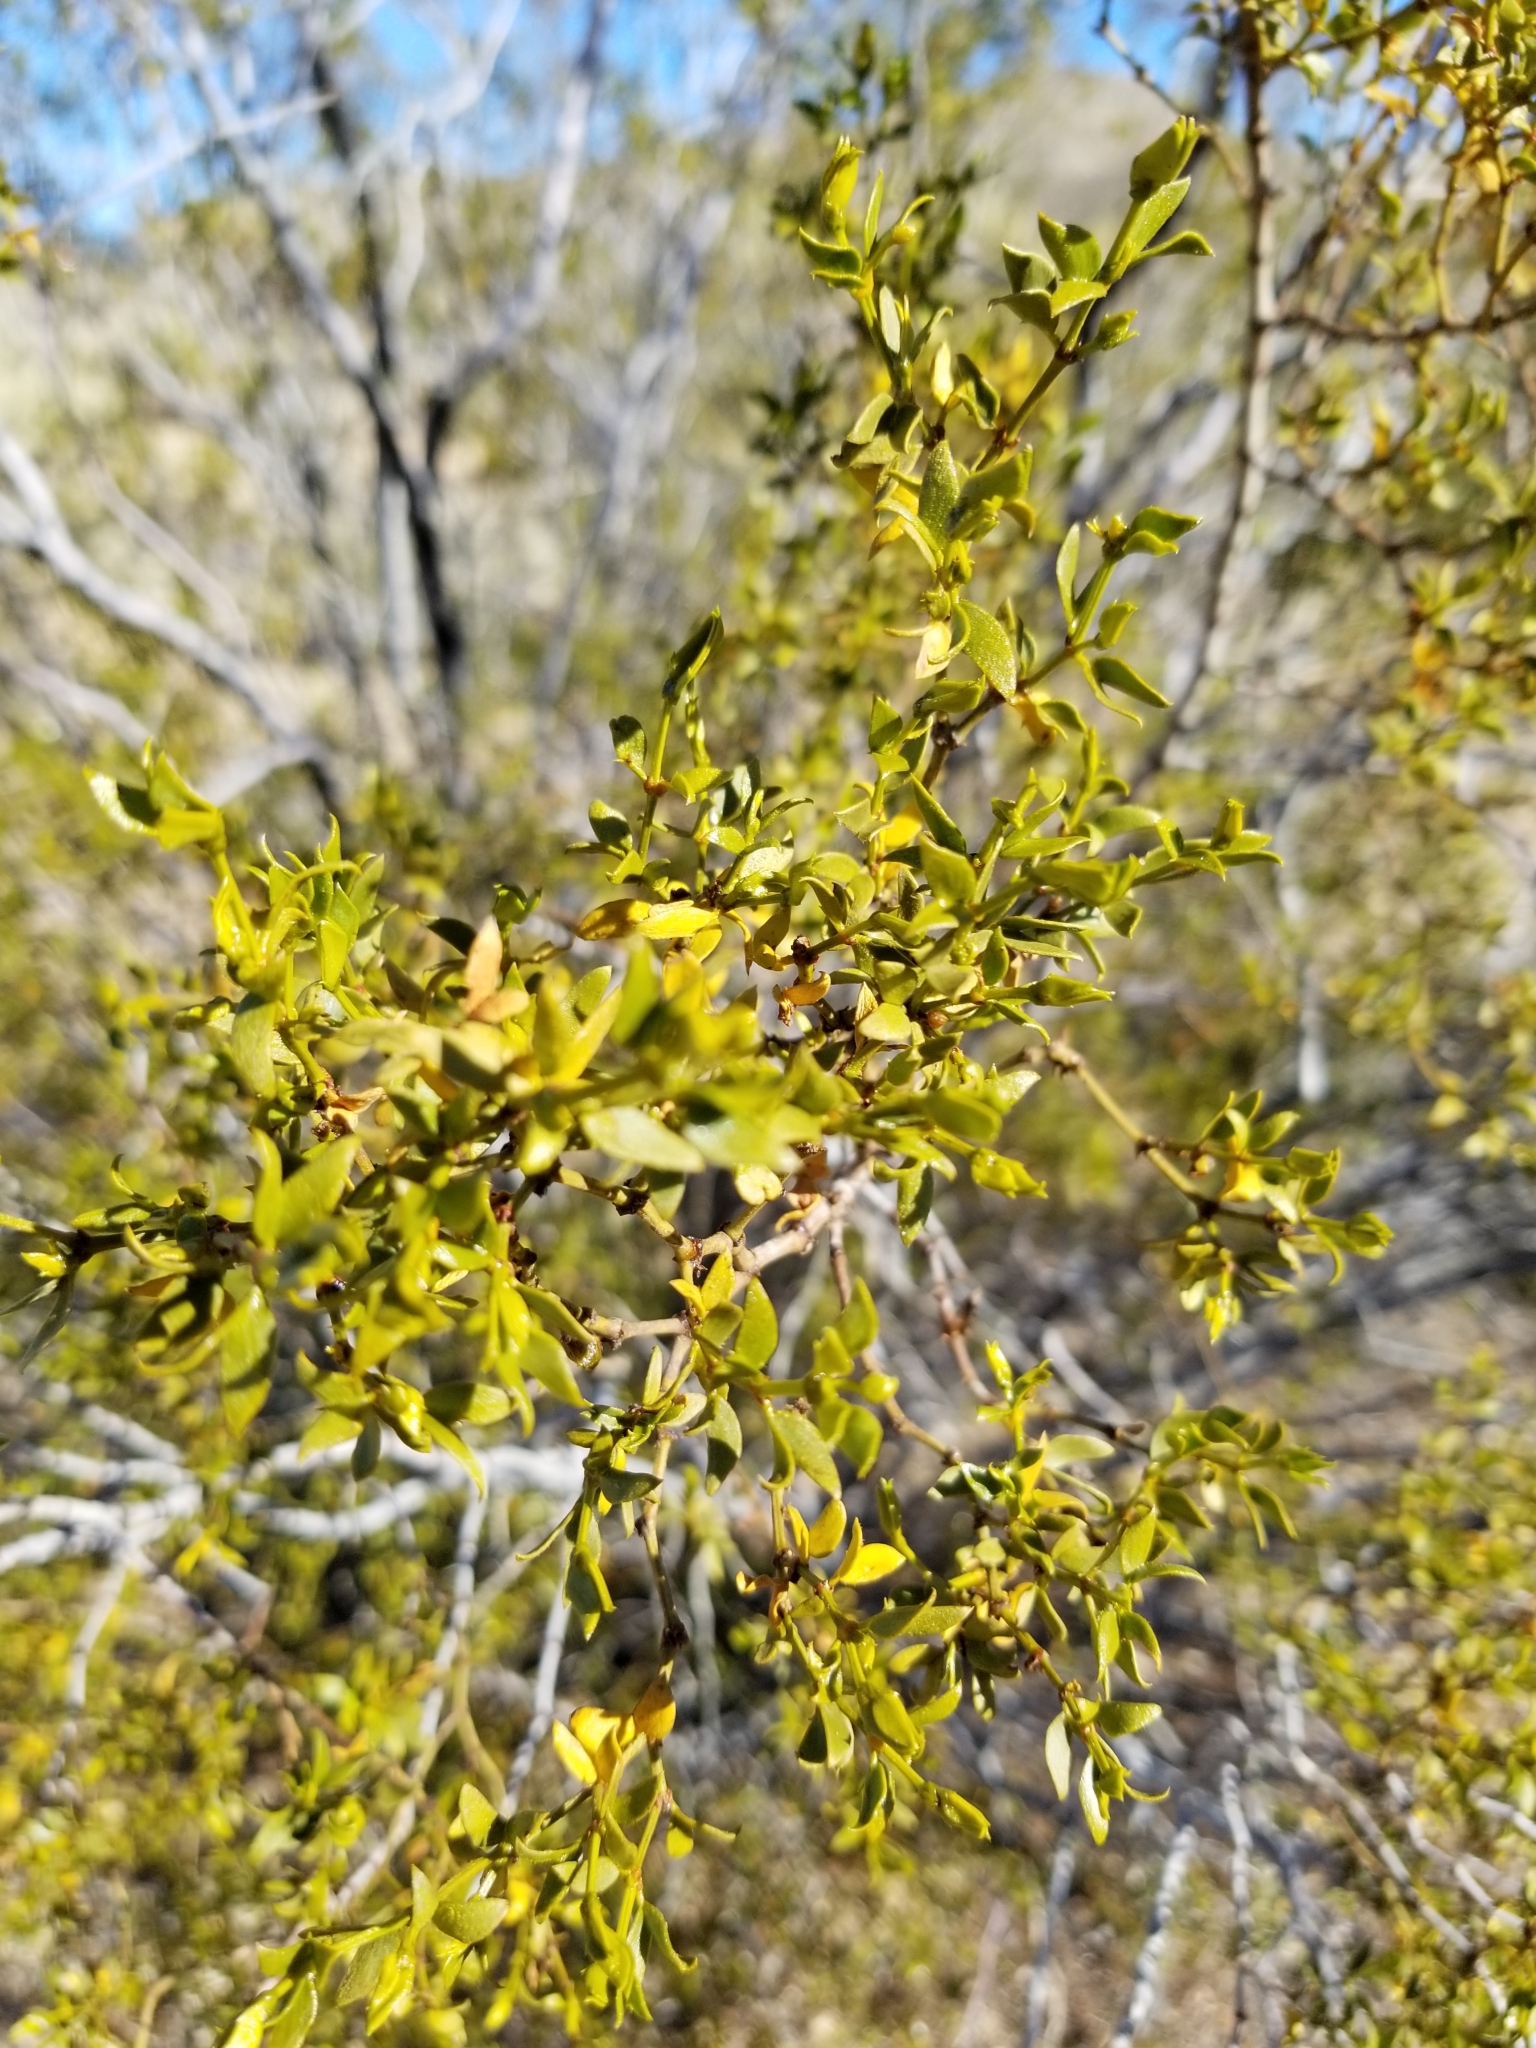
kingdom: Plantae
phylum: Tracheophyta
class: Magnoliopsida
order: Zygophyllales
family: Zygophyllaceae
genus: Larrea
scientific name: Larrea tridentata
